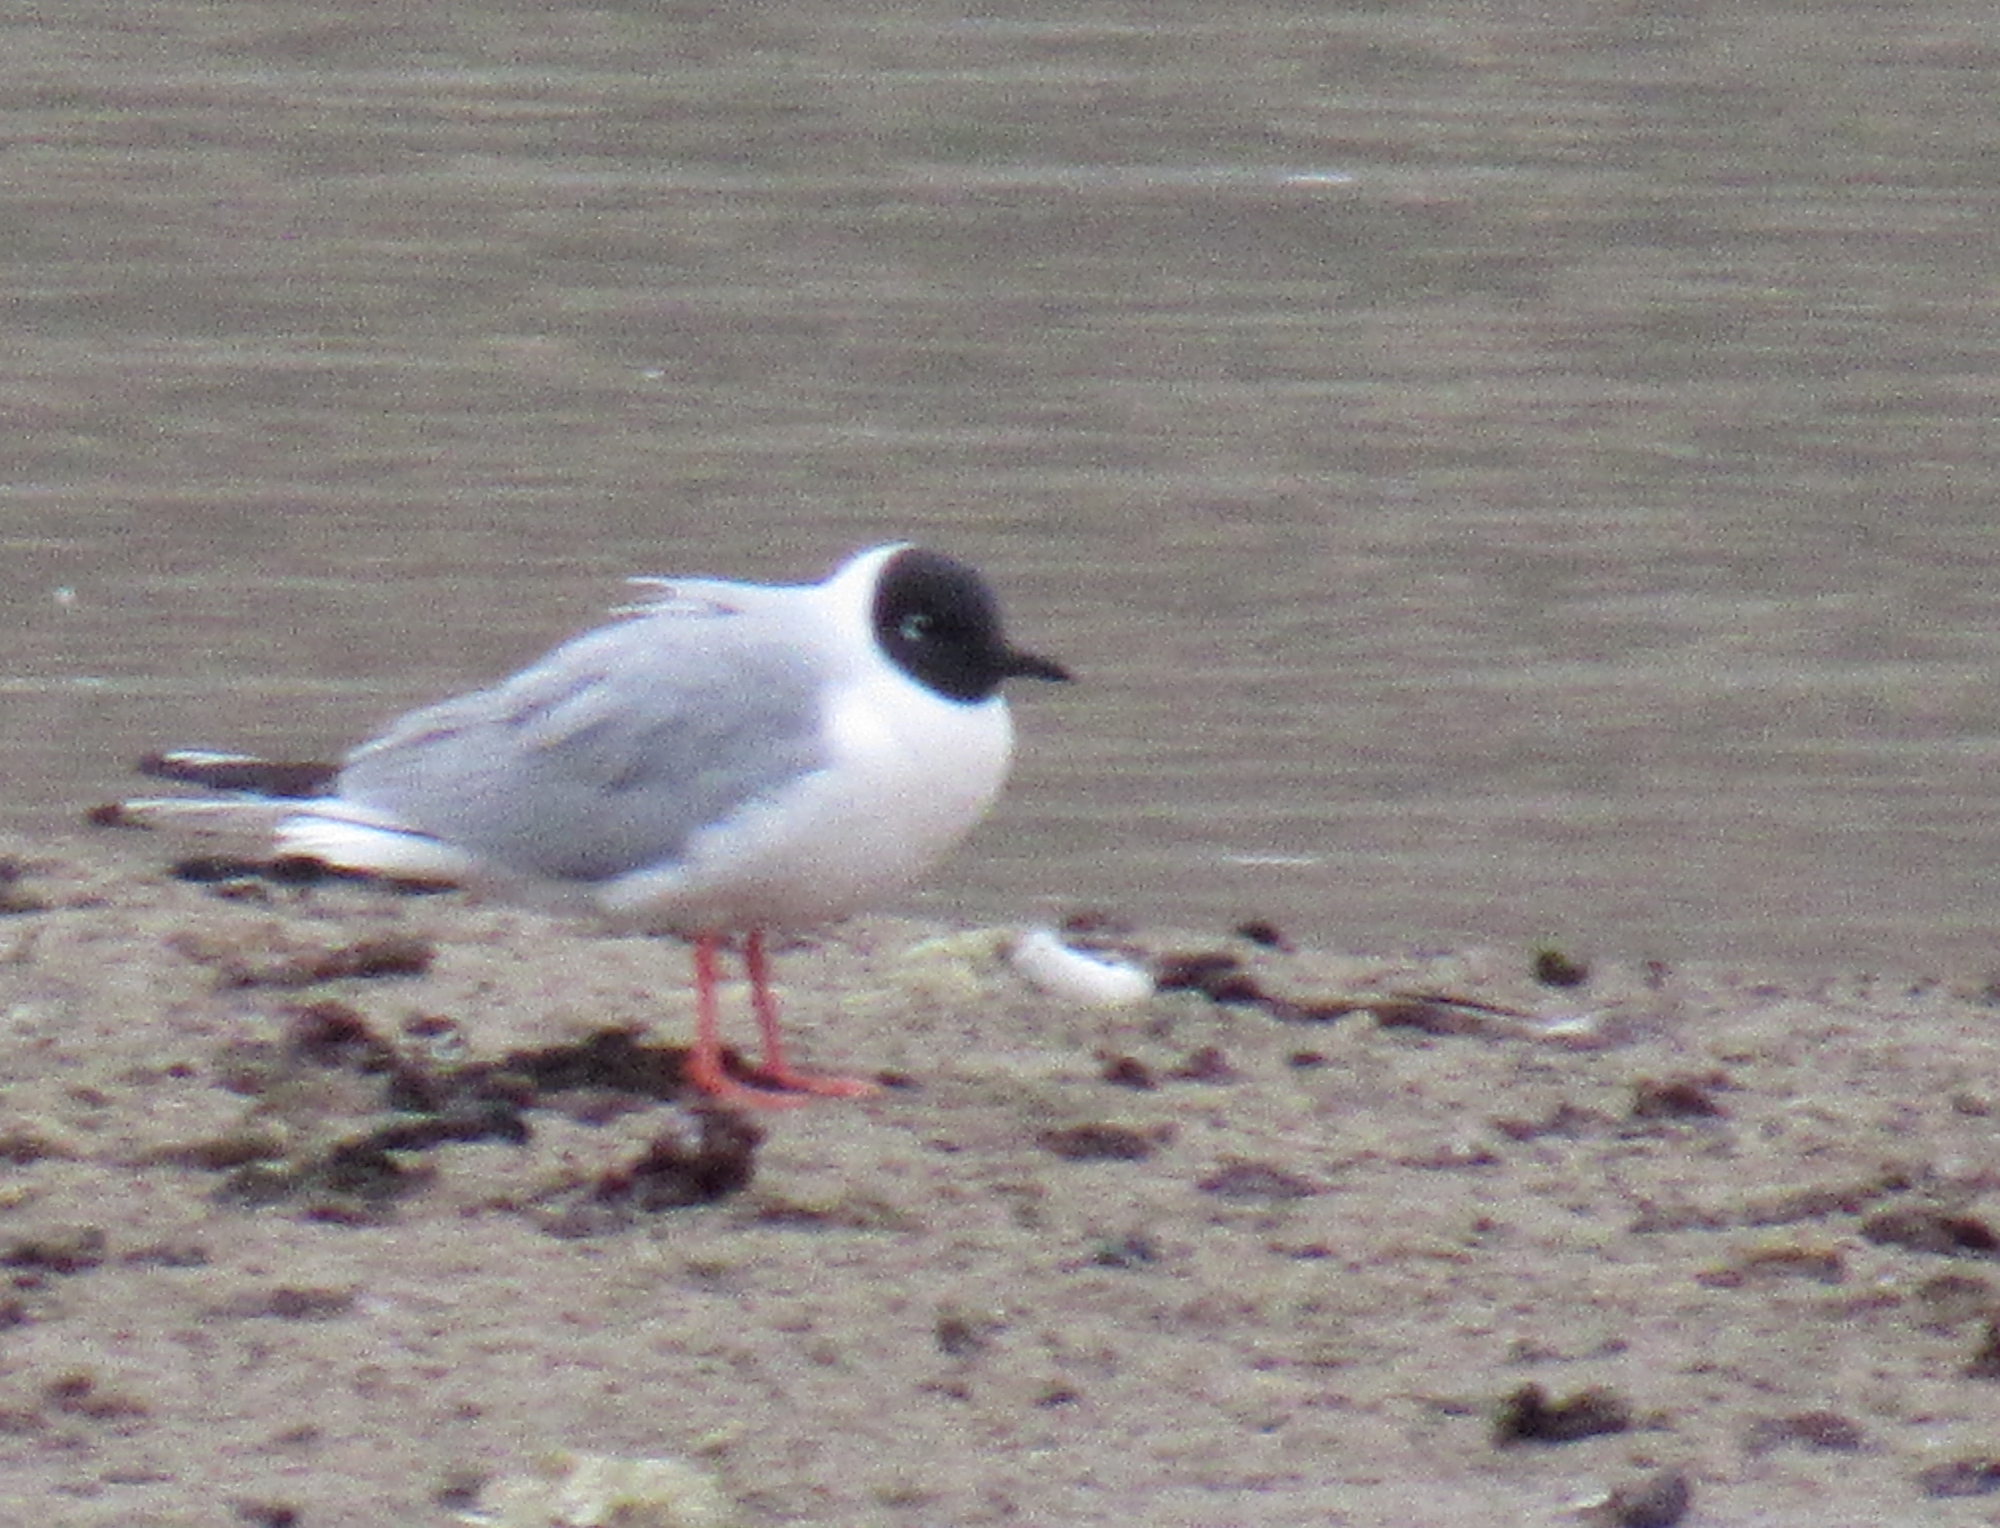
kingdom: Animalia
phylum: Chordata
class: Aves
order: Charadriiformes
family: Laridae
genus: Chroicocephalus
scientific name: Chroicocephalus philadelphia
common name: Bonaparte's gull
